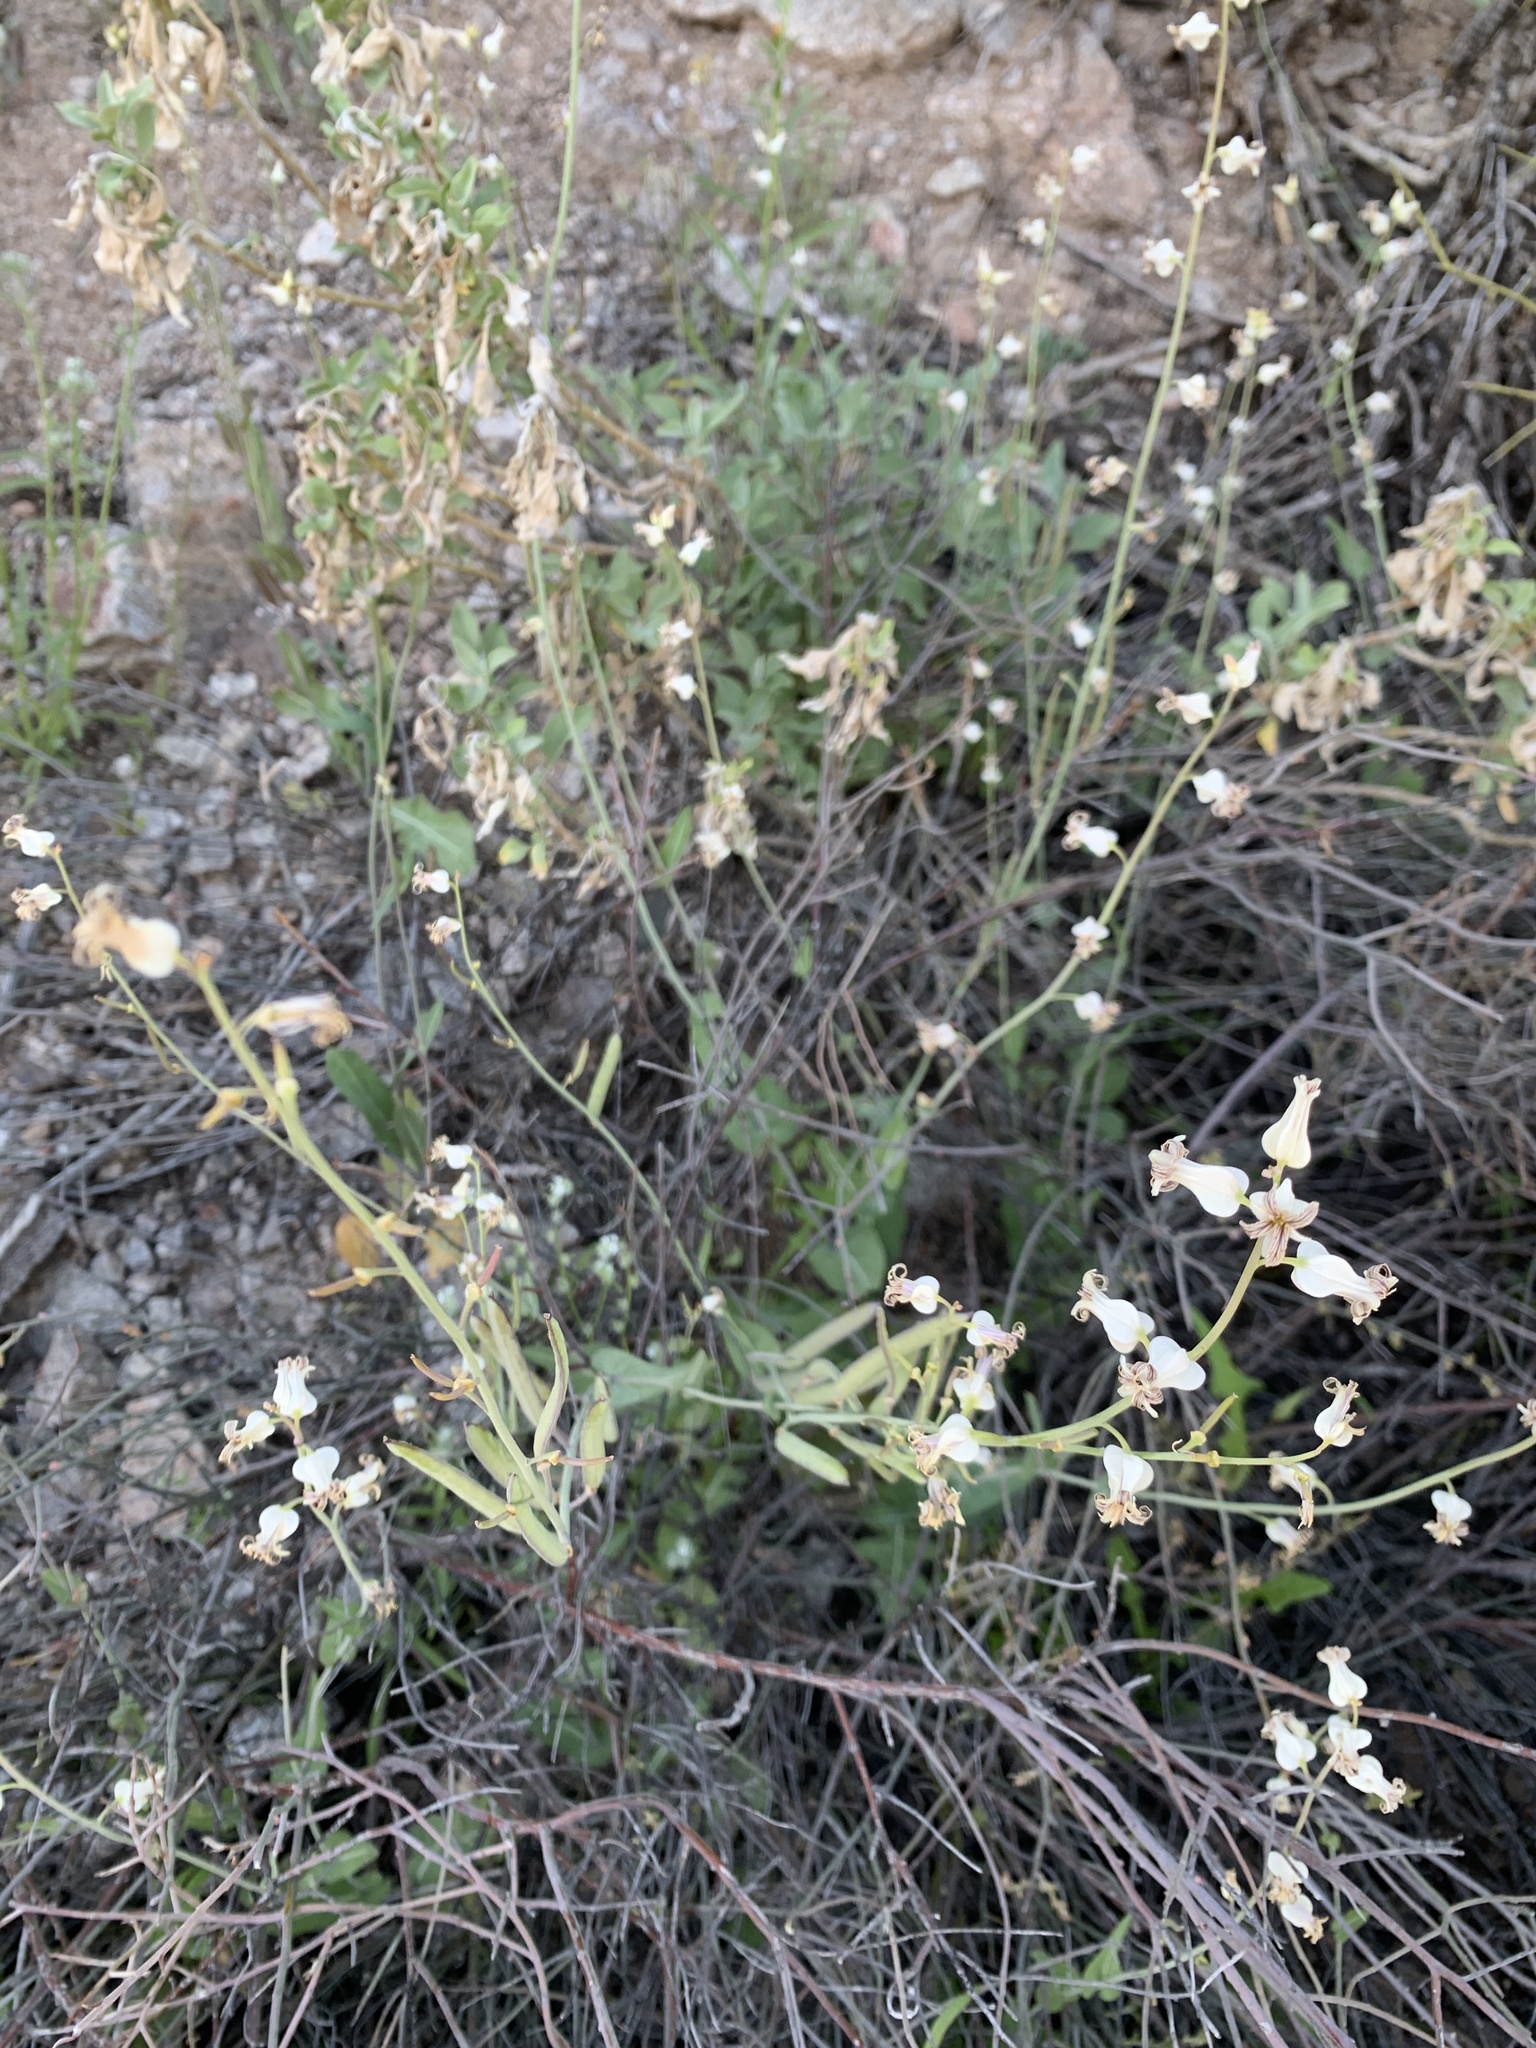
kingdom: Plantae
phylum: Tracheophyta
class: Magnoliopsida
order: Brassicales
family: Brassicaceae
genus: Streptanthus
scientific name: Streptanthus carinatus
